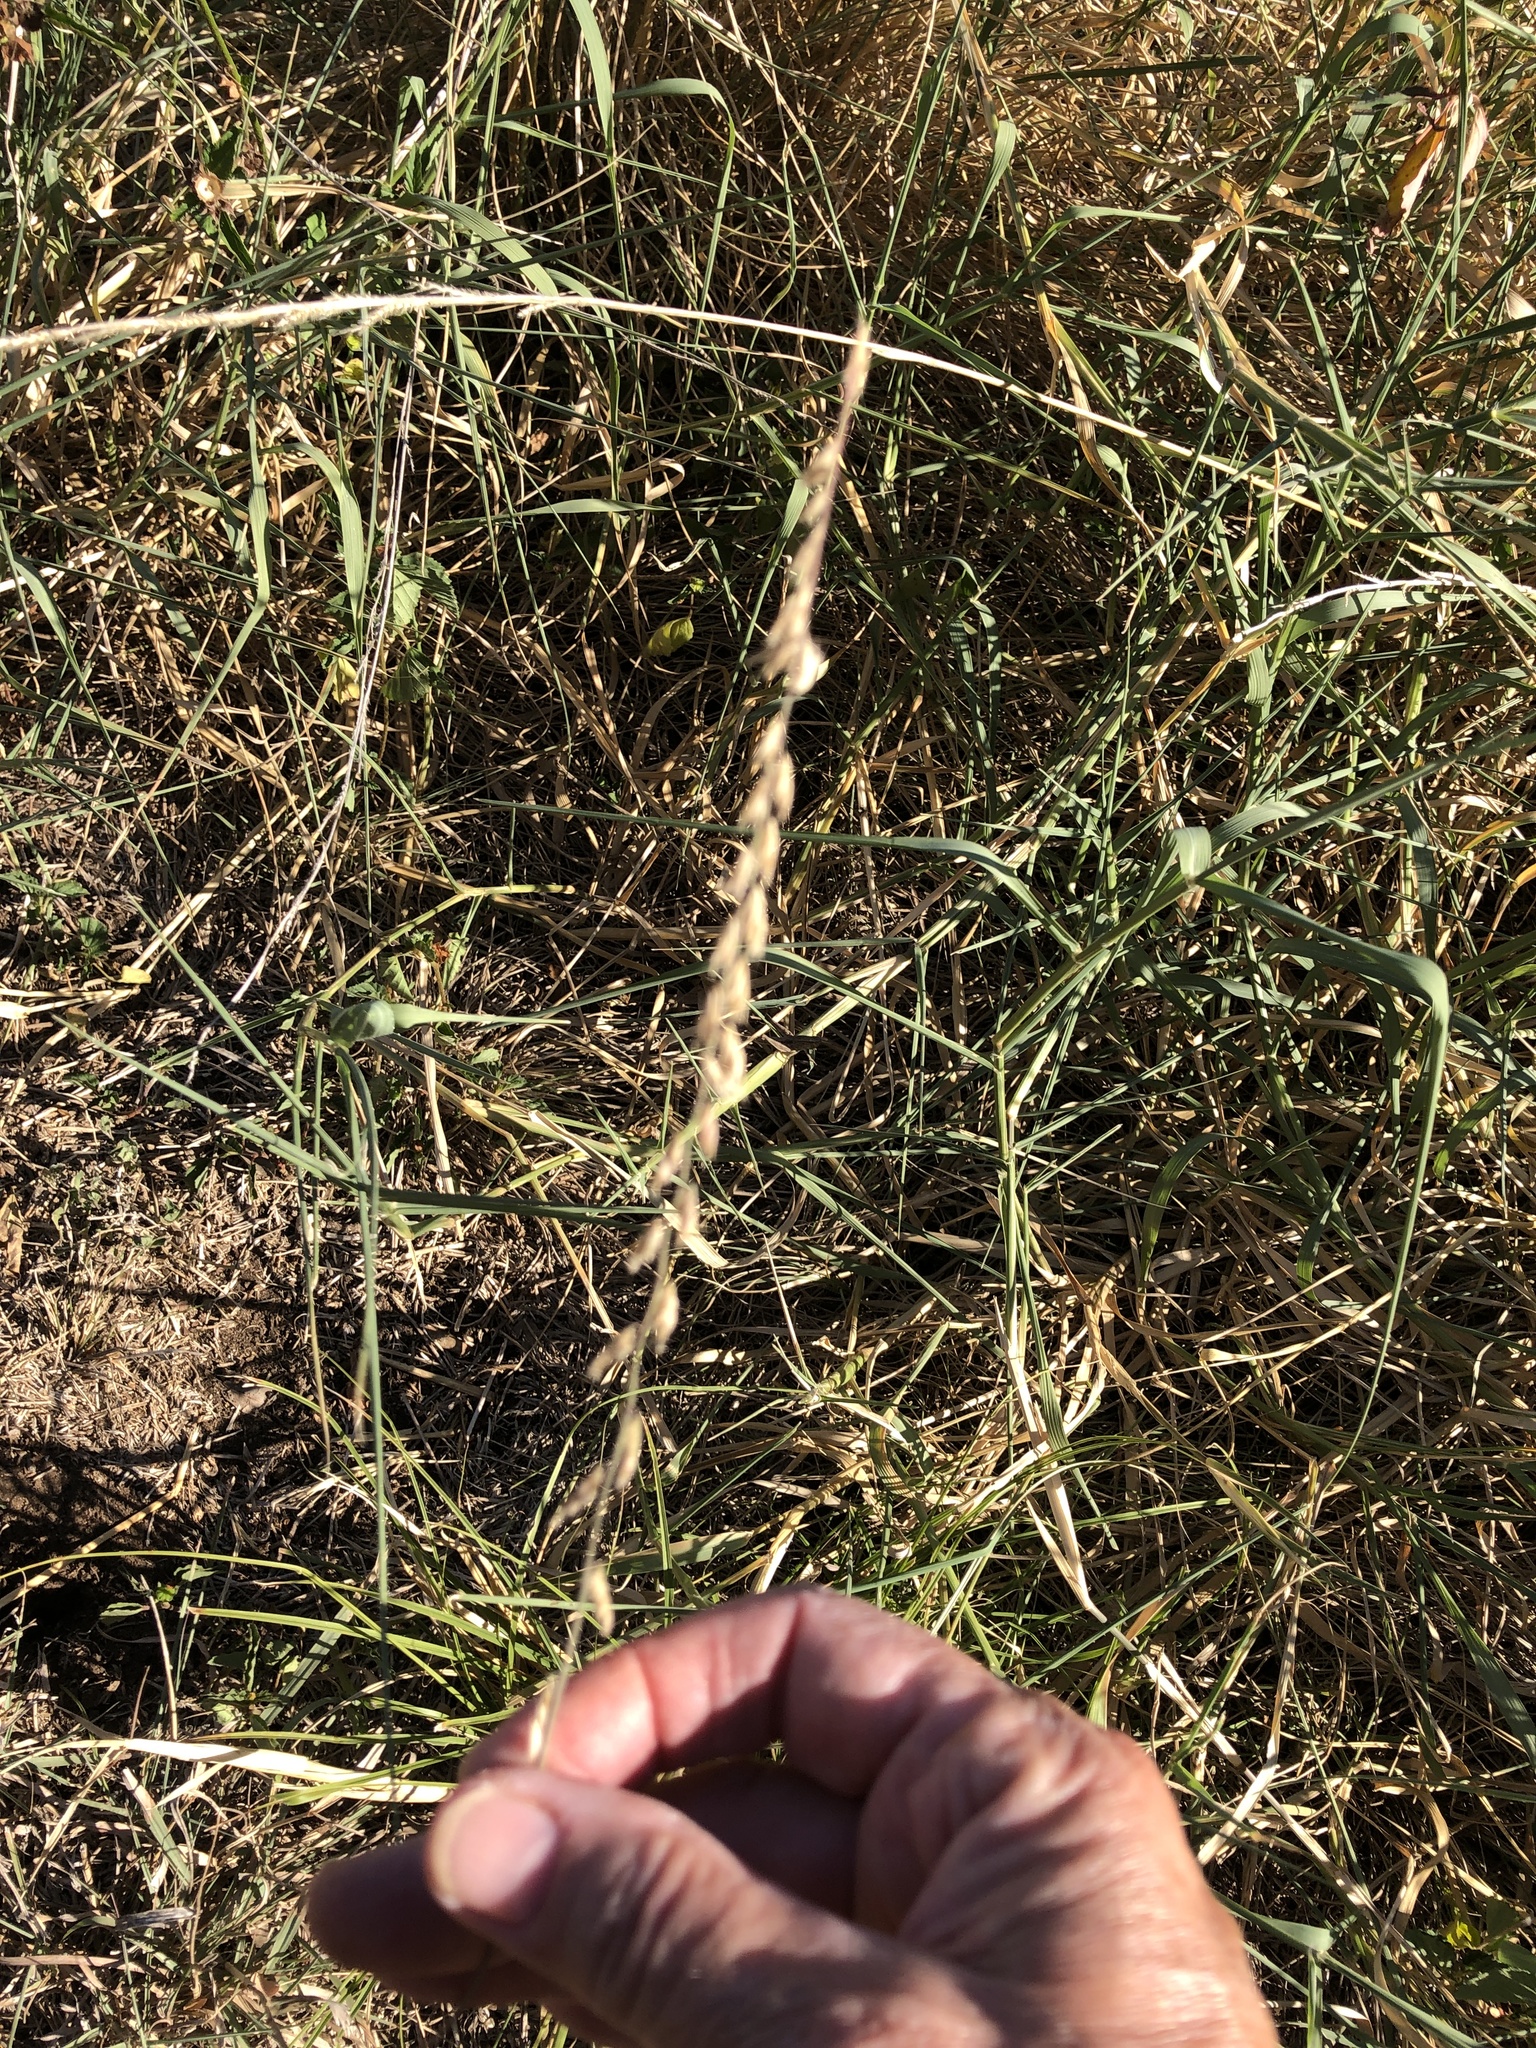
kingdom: Plantae
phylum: Tracheophyta
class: Liliopsida
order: Poales
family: Poaceae
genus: Bouteloua
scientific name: Bouteloua curtipendula
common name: Side-oats grama
